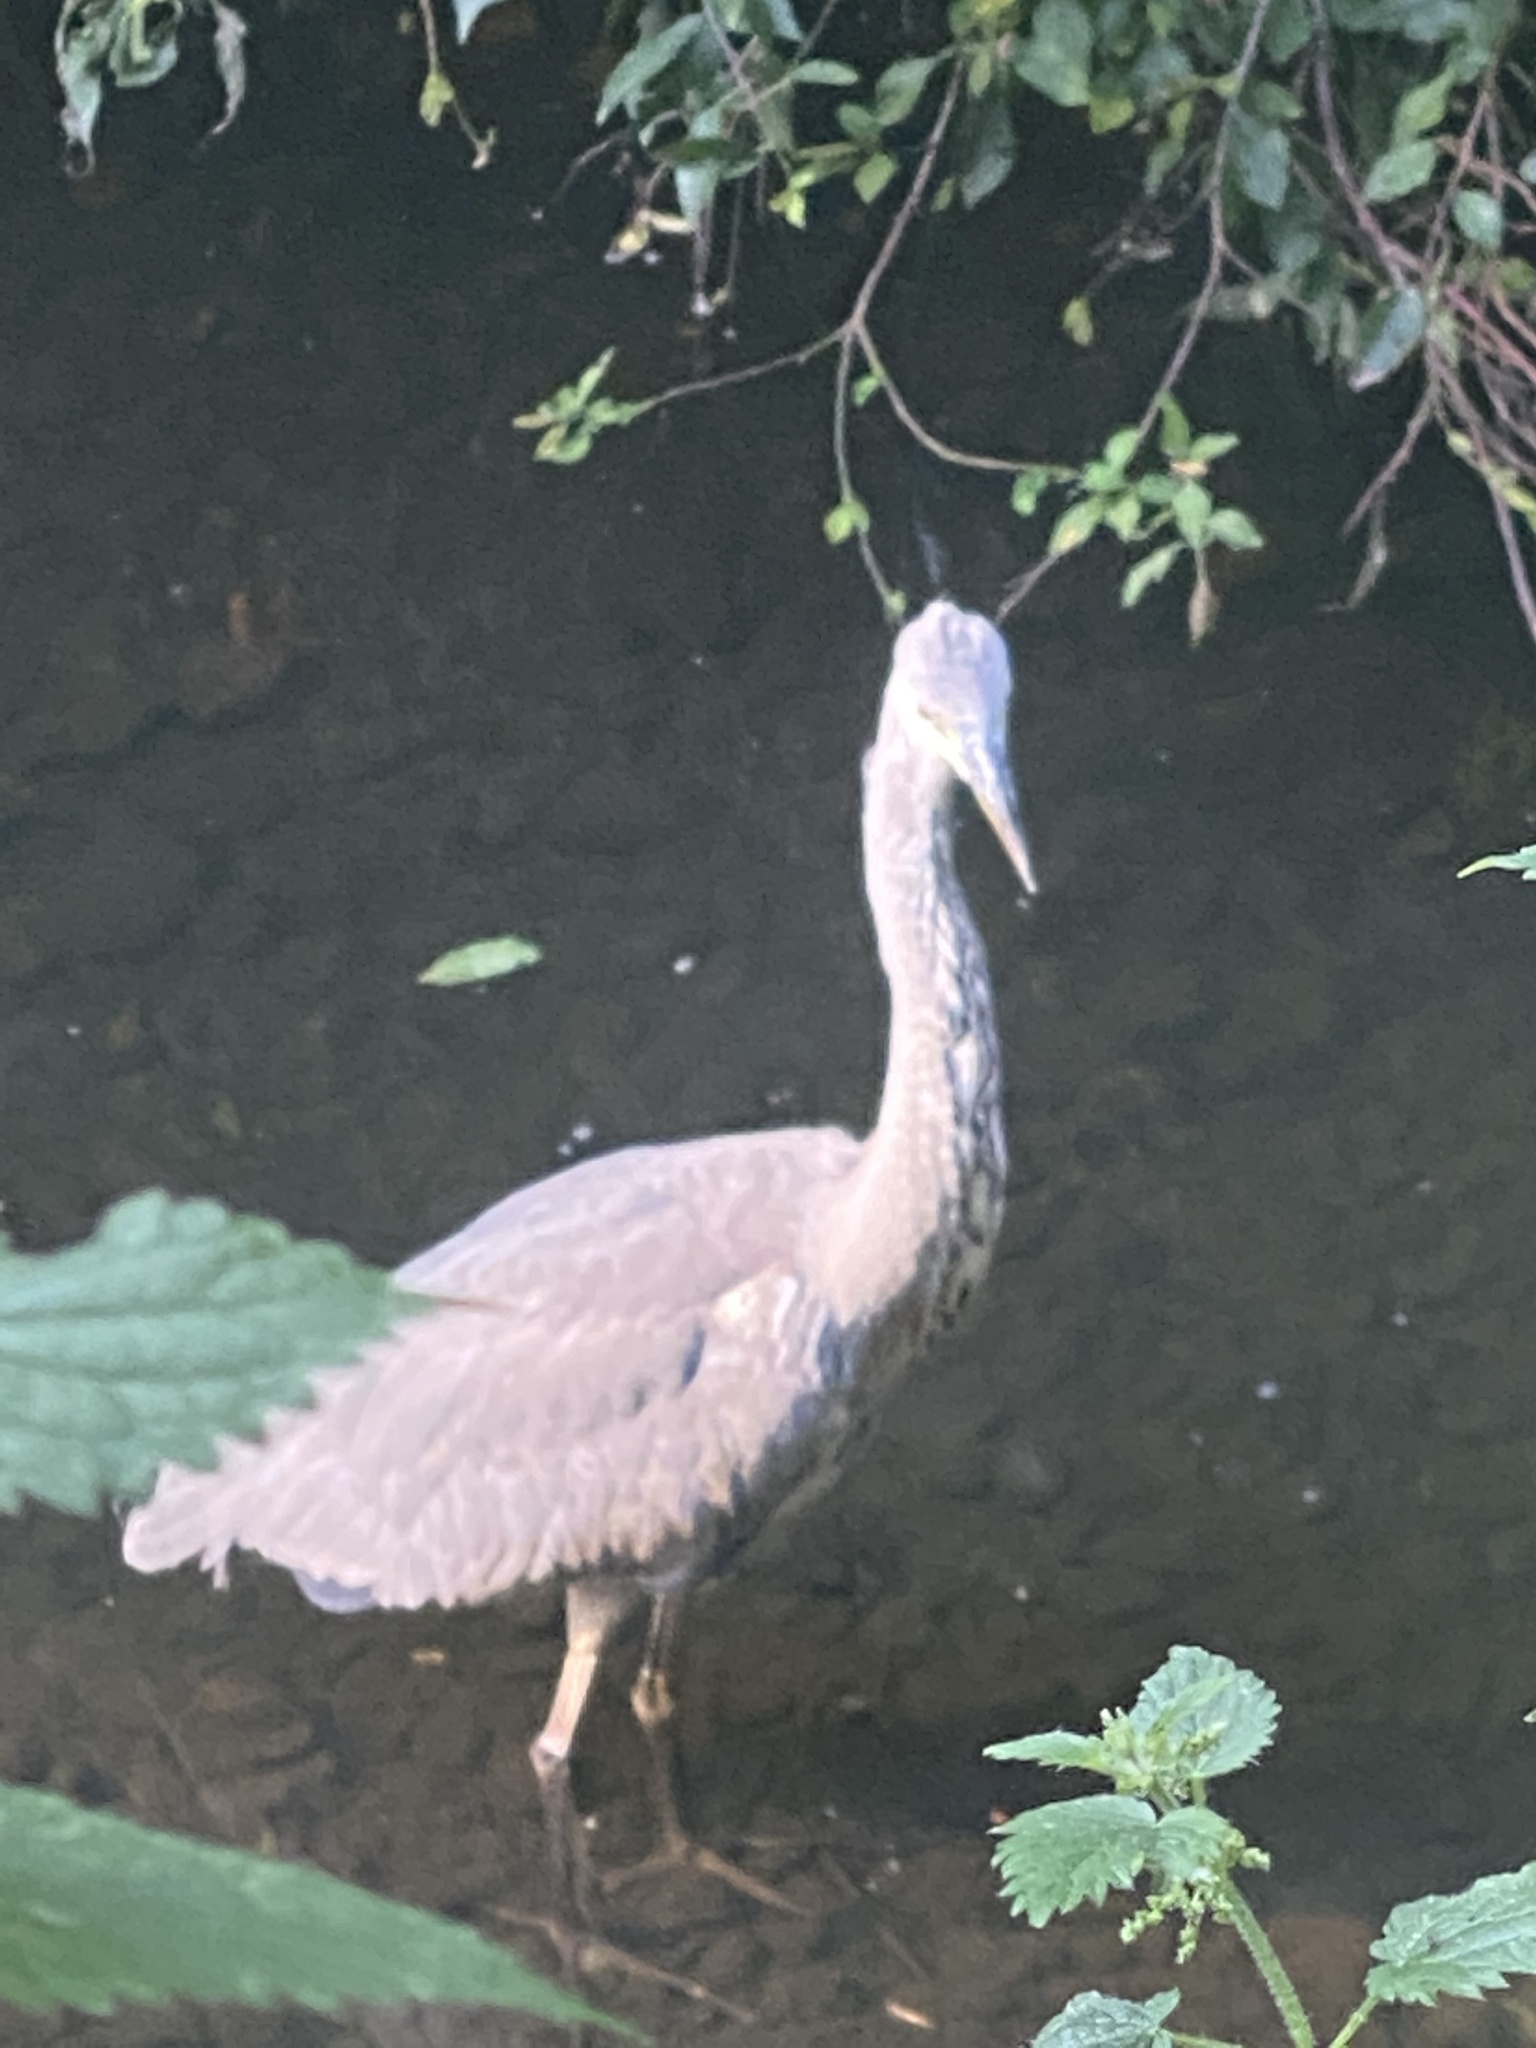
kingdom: Animalia
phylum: Chordata
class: Aves
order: Pelecaniformes
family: Ardeidae
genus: Ardea
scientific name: Ardea cinerea
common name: Grey heron
